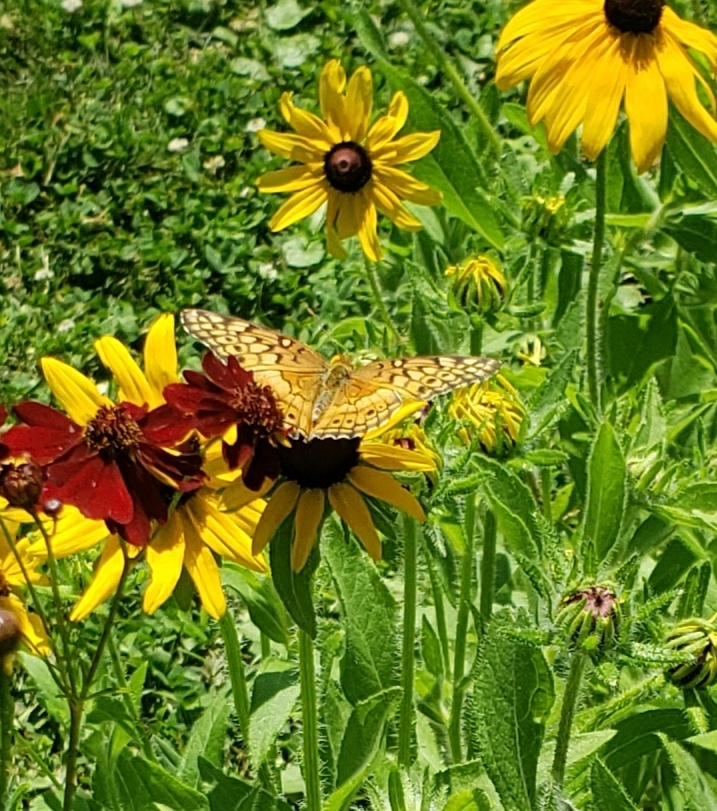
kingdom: Animalia
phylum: Arthropoda
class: Insecta
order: Lepidoptera
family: Nymphalidae
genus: Euptoieta
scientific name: Euptoieta claudia
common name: Variegated fritillary
